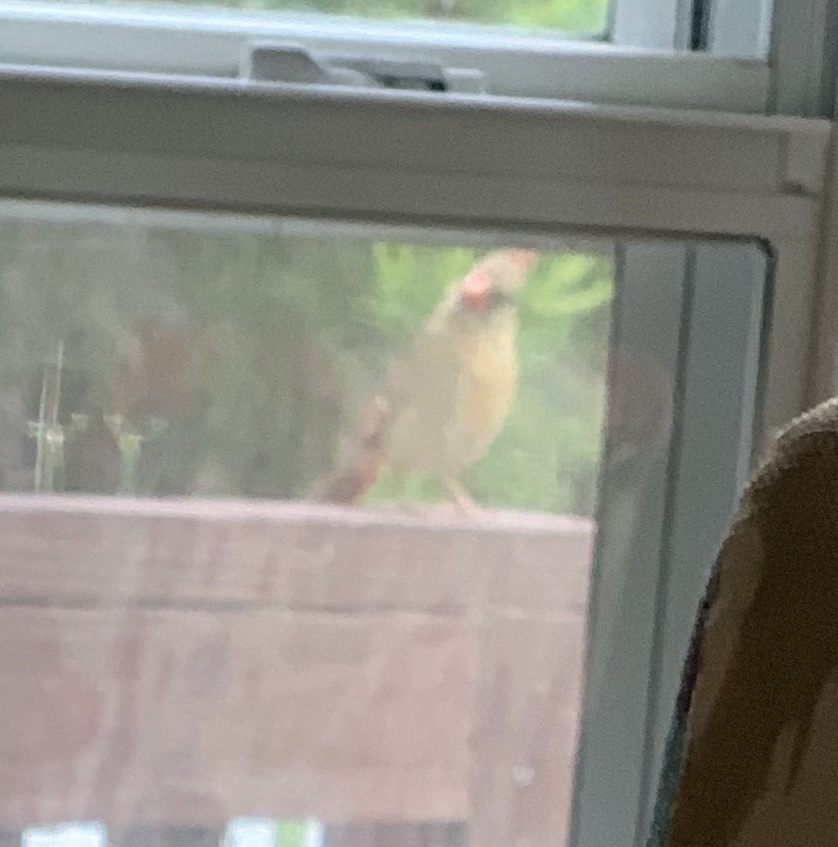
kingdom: Animalia
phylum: Chordata
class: Aves
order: Passeriformes
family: Cardinalidae
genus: Cardinalis
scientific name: Cardinalis cardinalis
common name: Northern cardinal
